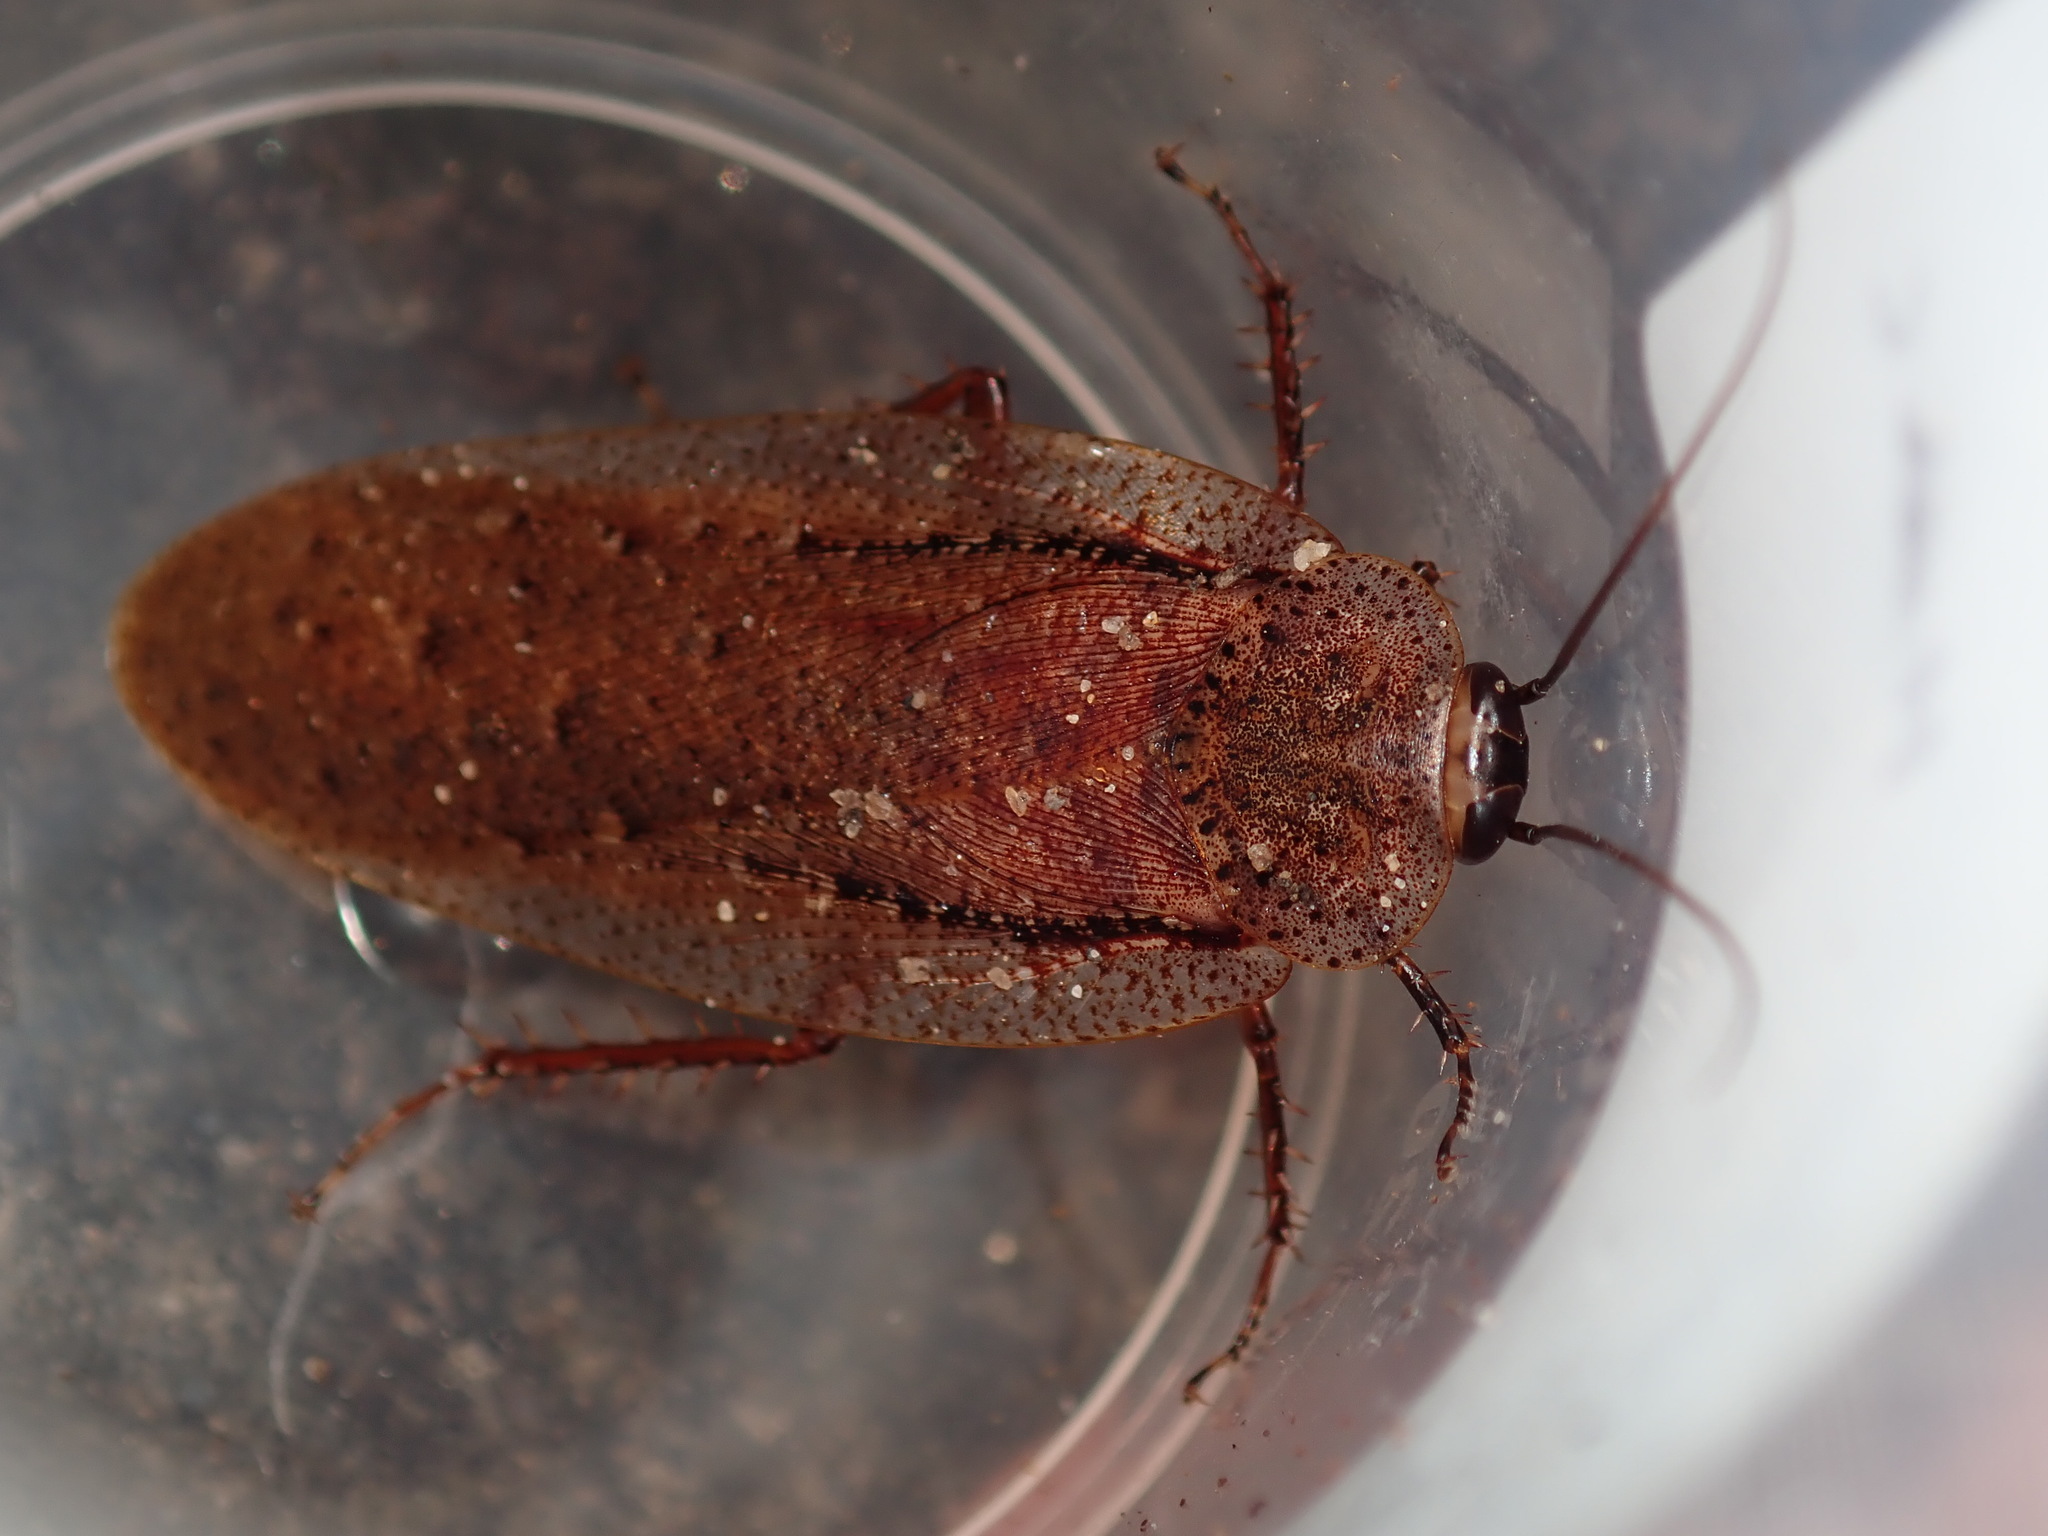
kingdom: Animalia
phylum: Arthropoda
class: Insecta
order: Blattodea
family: Blaberidae
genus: Molytria
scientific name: Molytria inquinata
